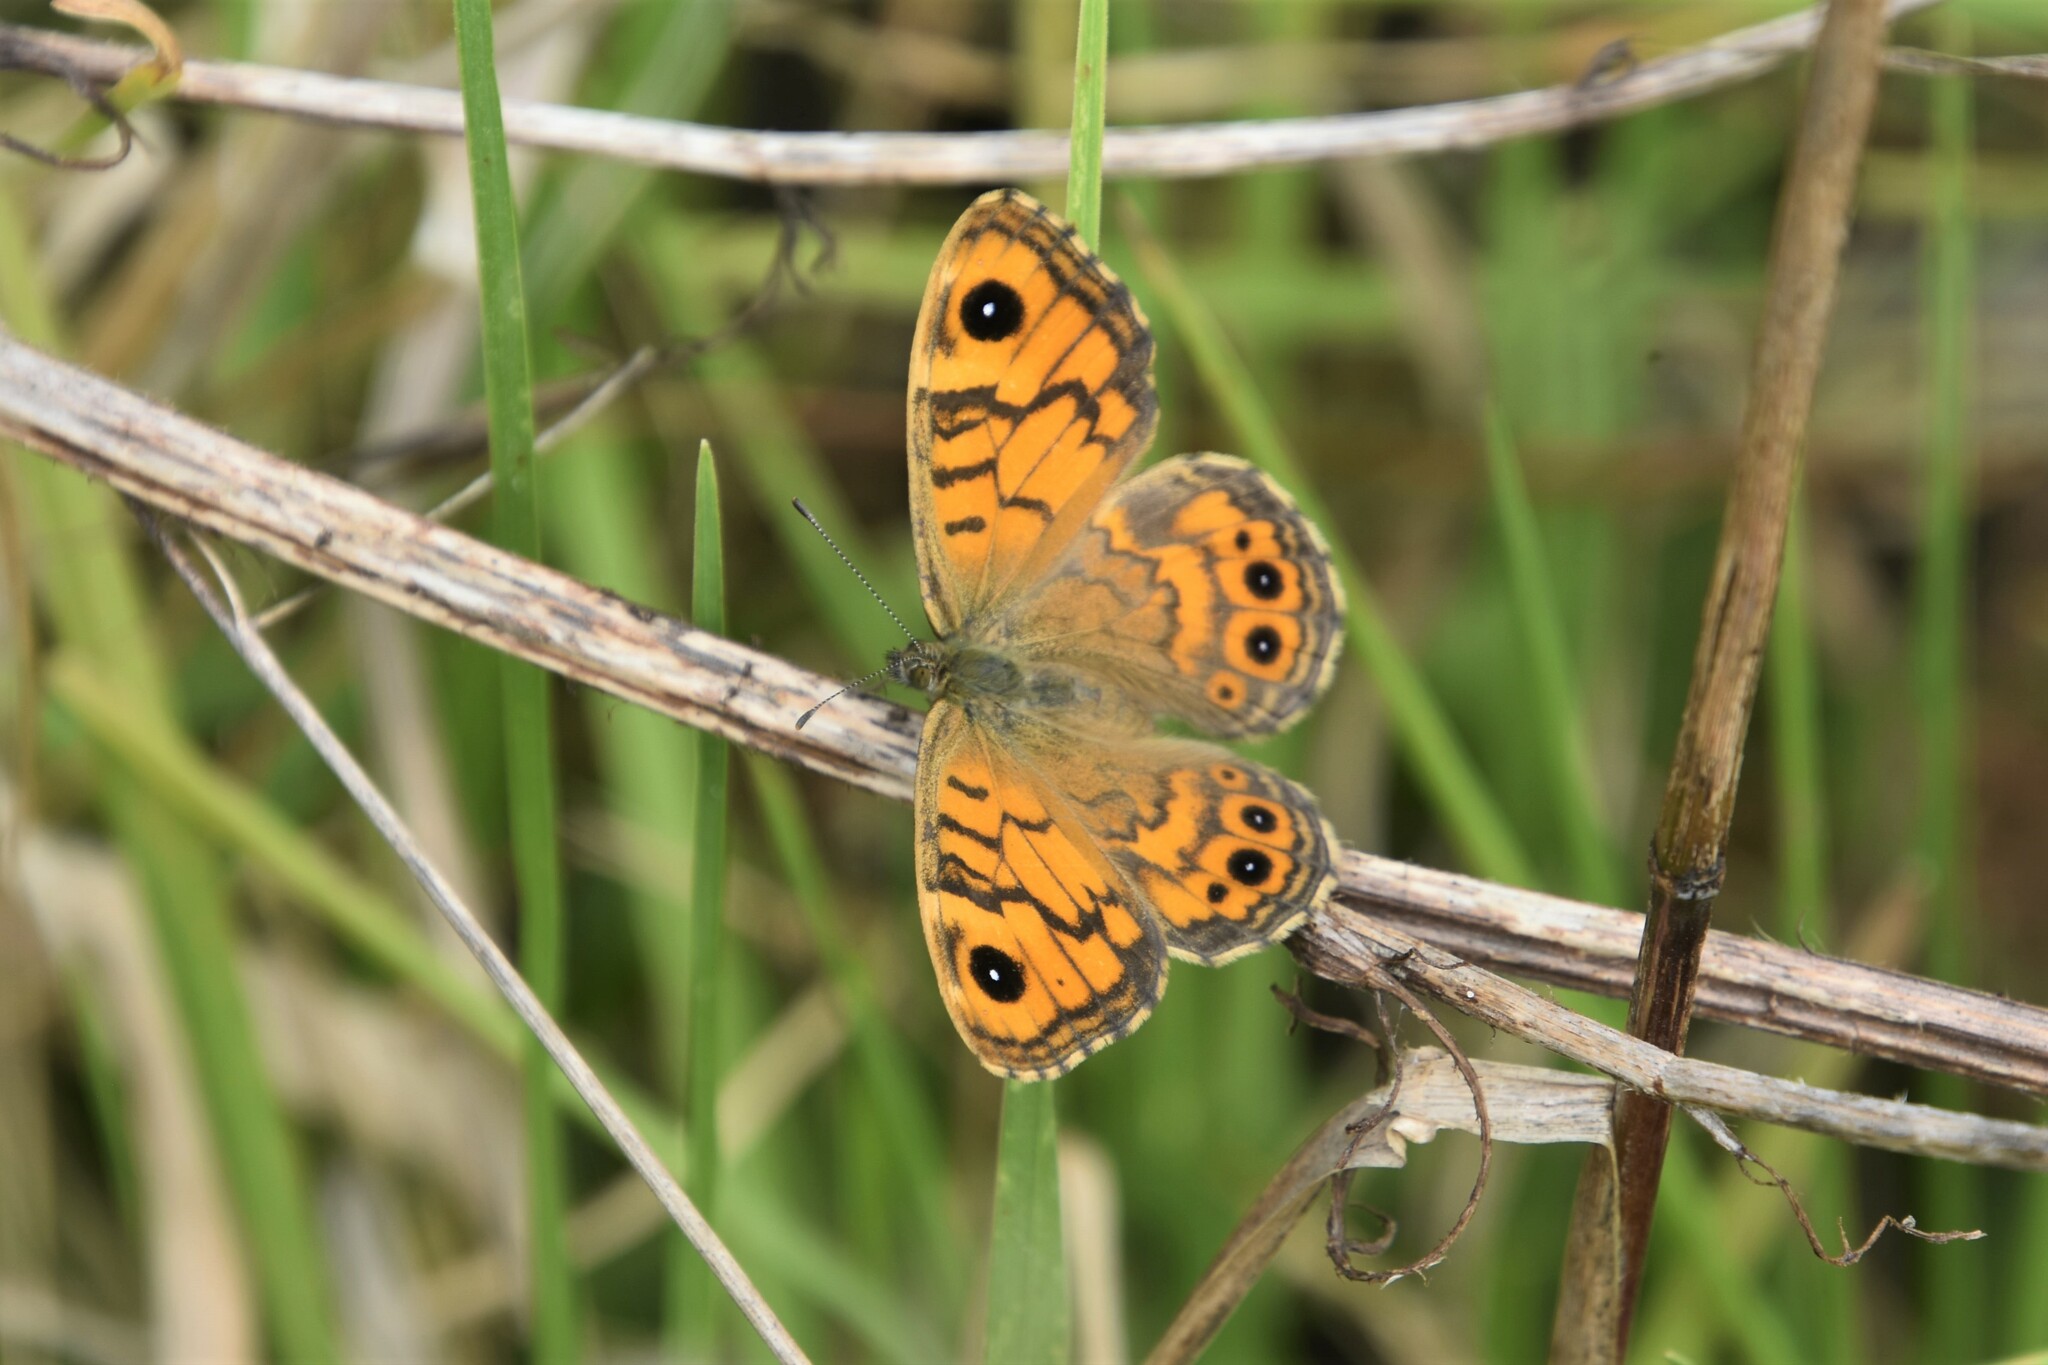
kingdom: Animalia
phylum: Arthropoda
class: Insecta
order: Lepidoptera
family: Nymphalidae
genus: Pararge
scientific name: Pararge Lasiommata megera
